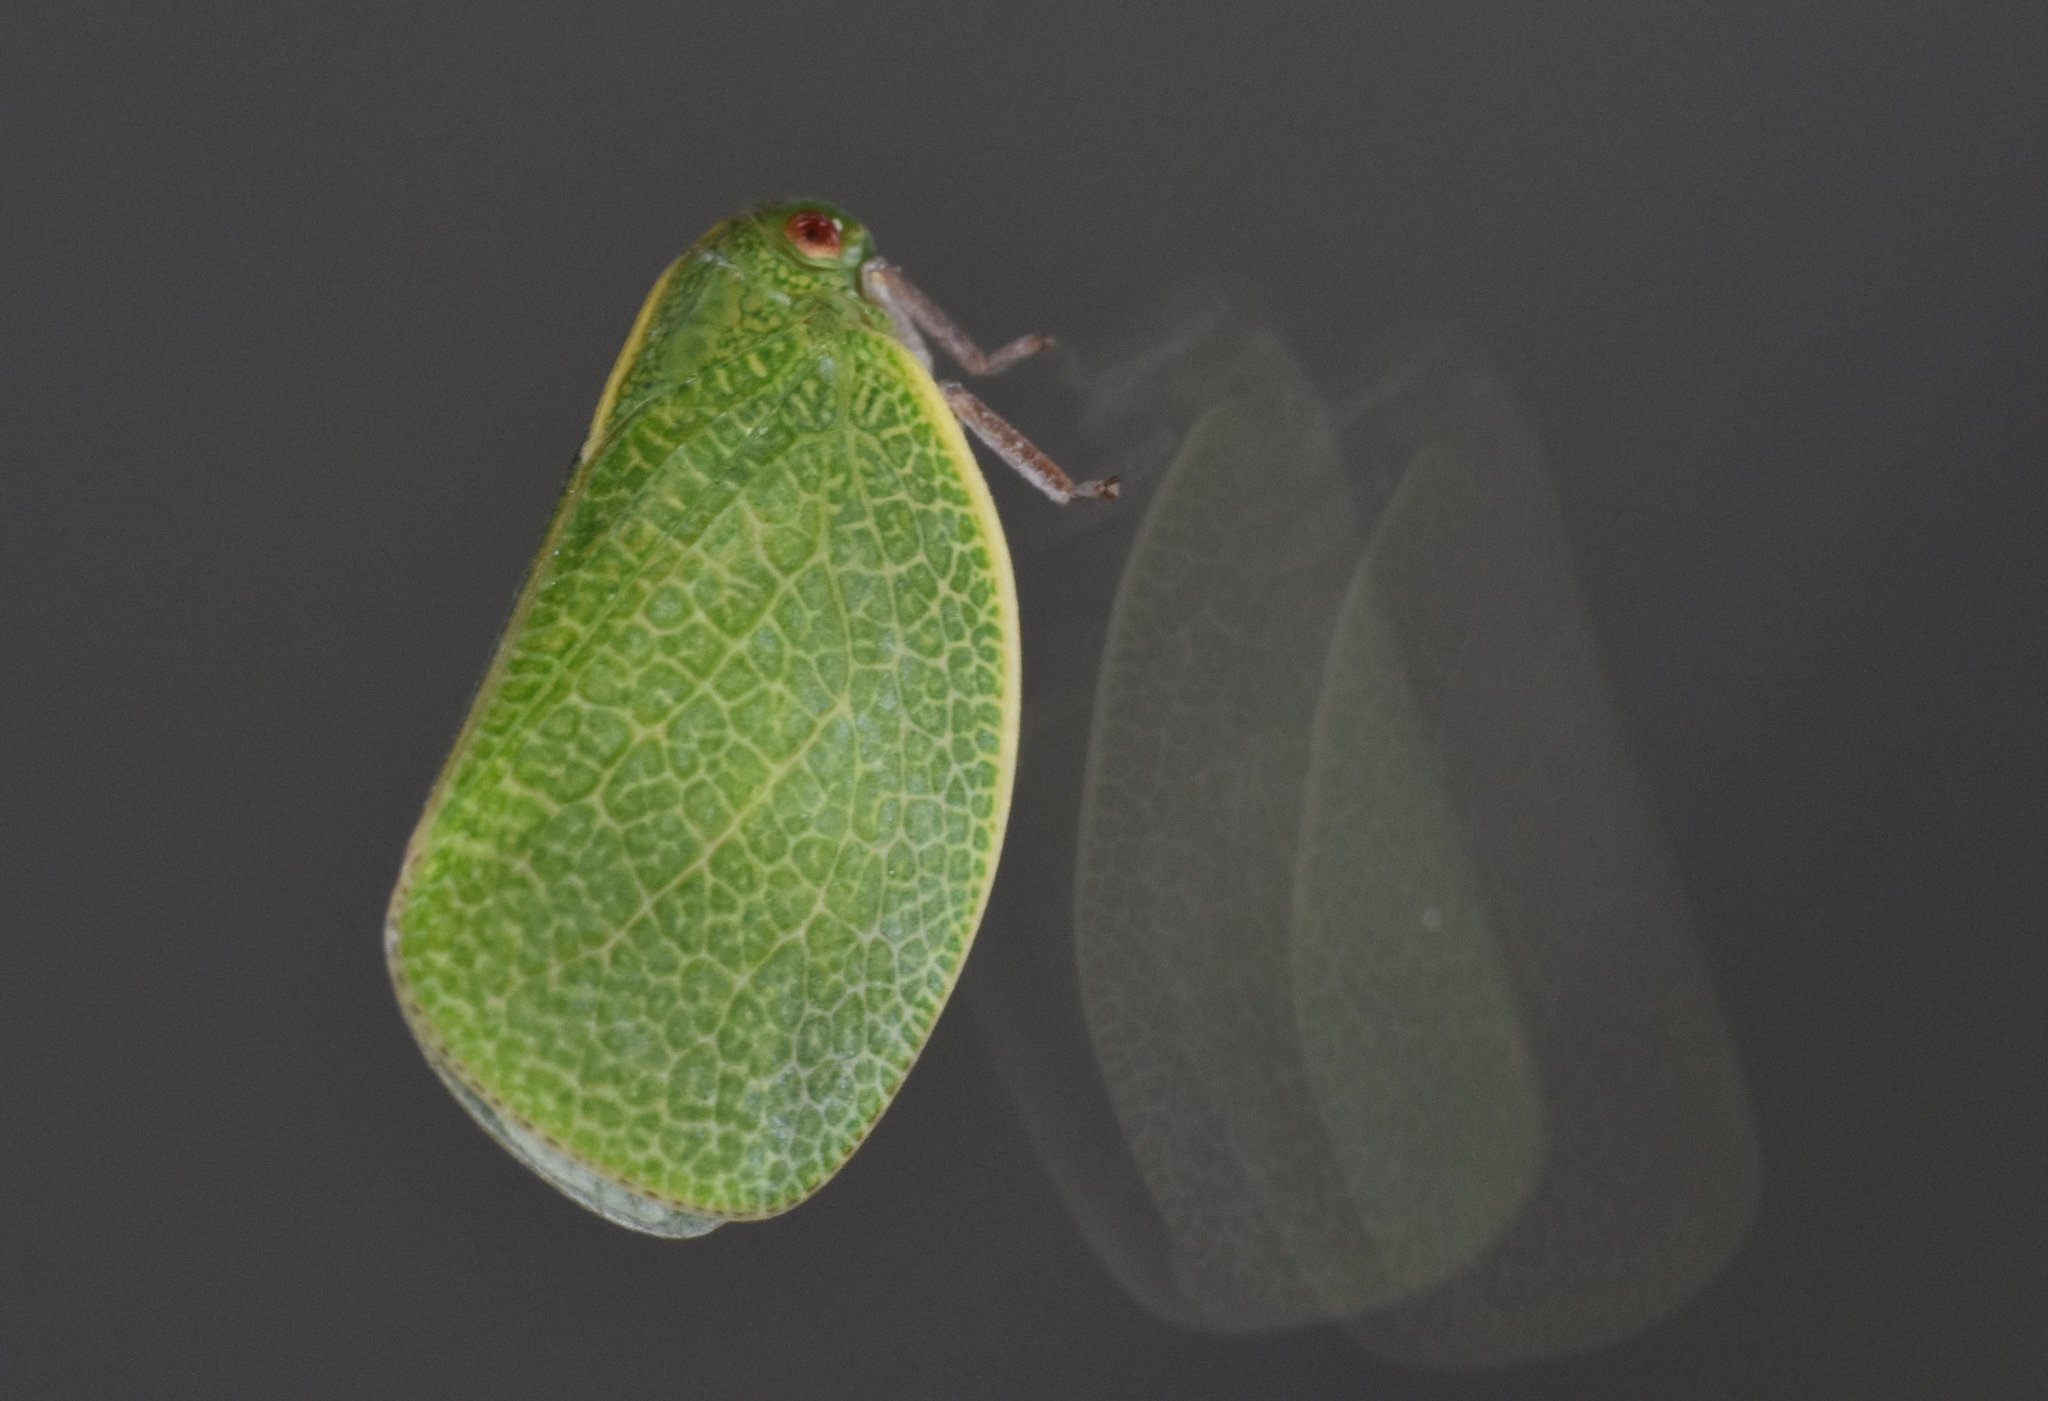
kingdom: Animalia
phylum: Arthropoda
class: Insecta
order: Hemiptera
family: Acanaloniidae
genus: Acanalonia
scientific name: Acanalonia servillei
